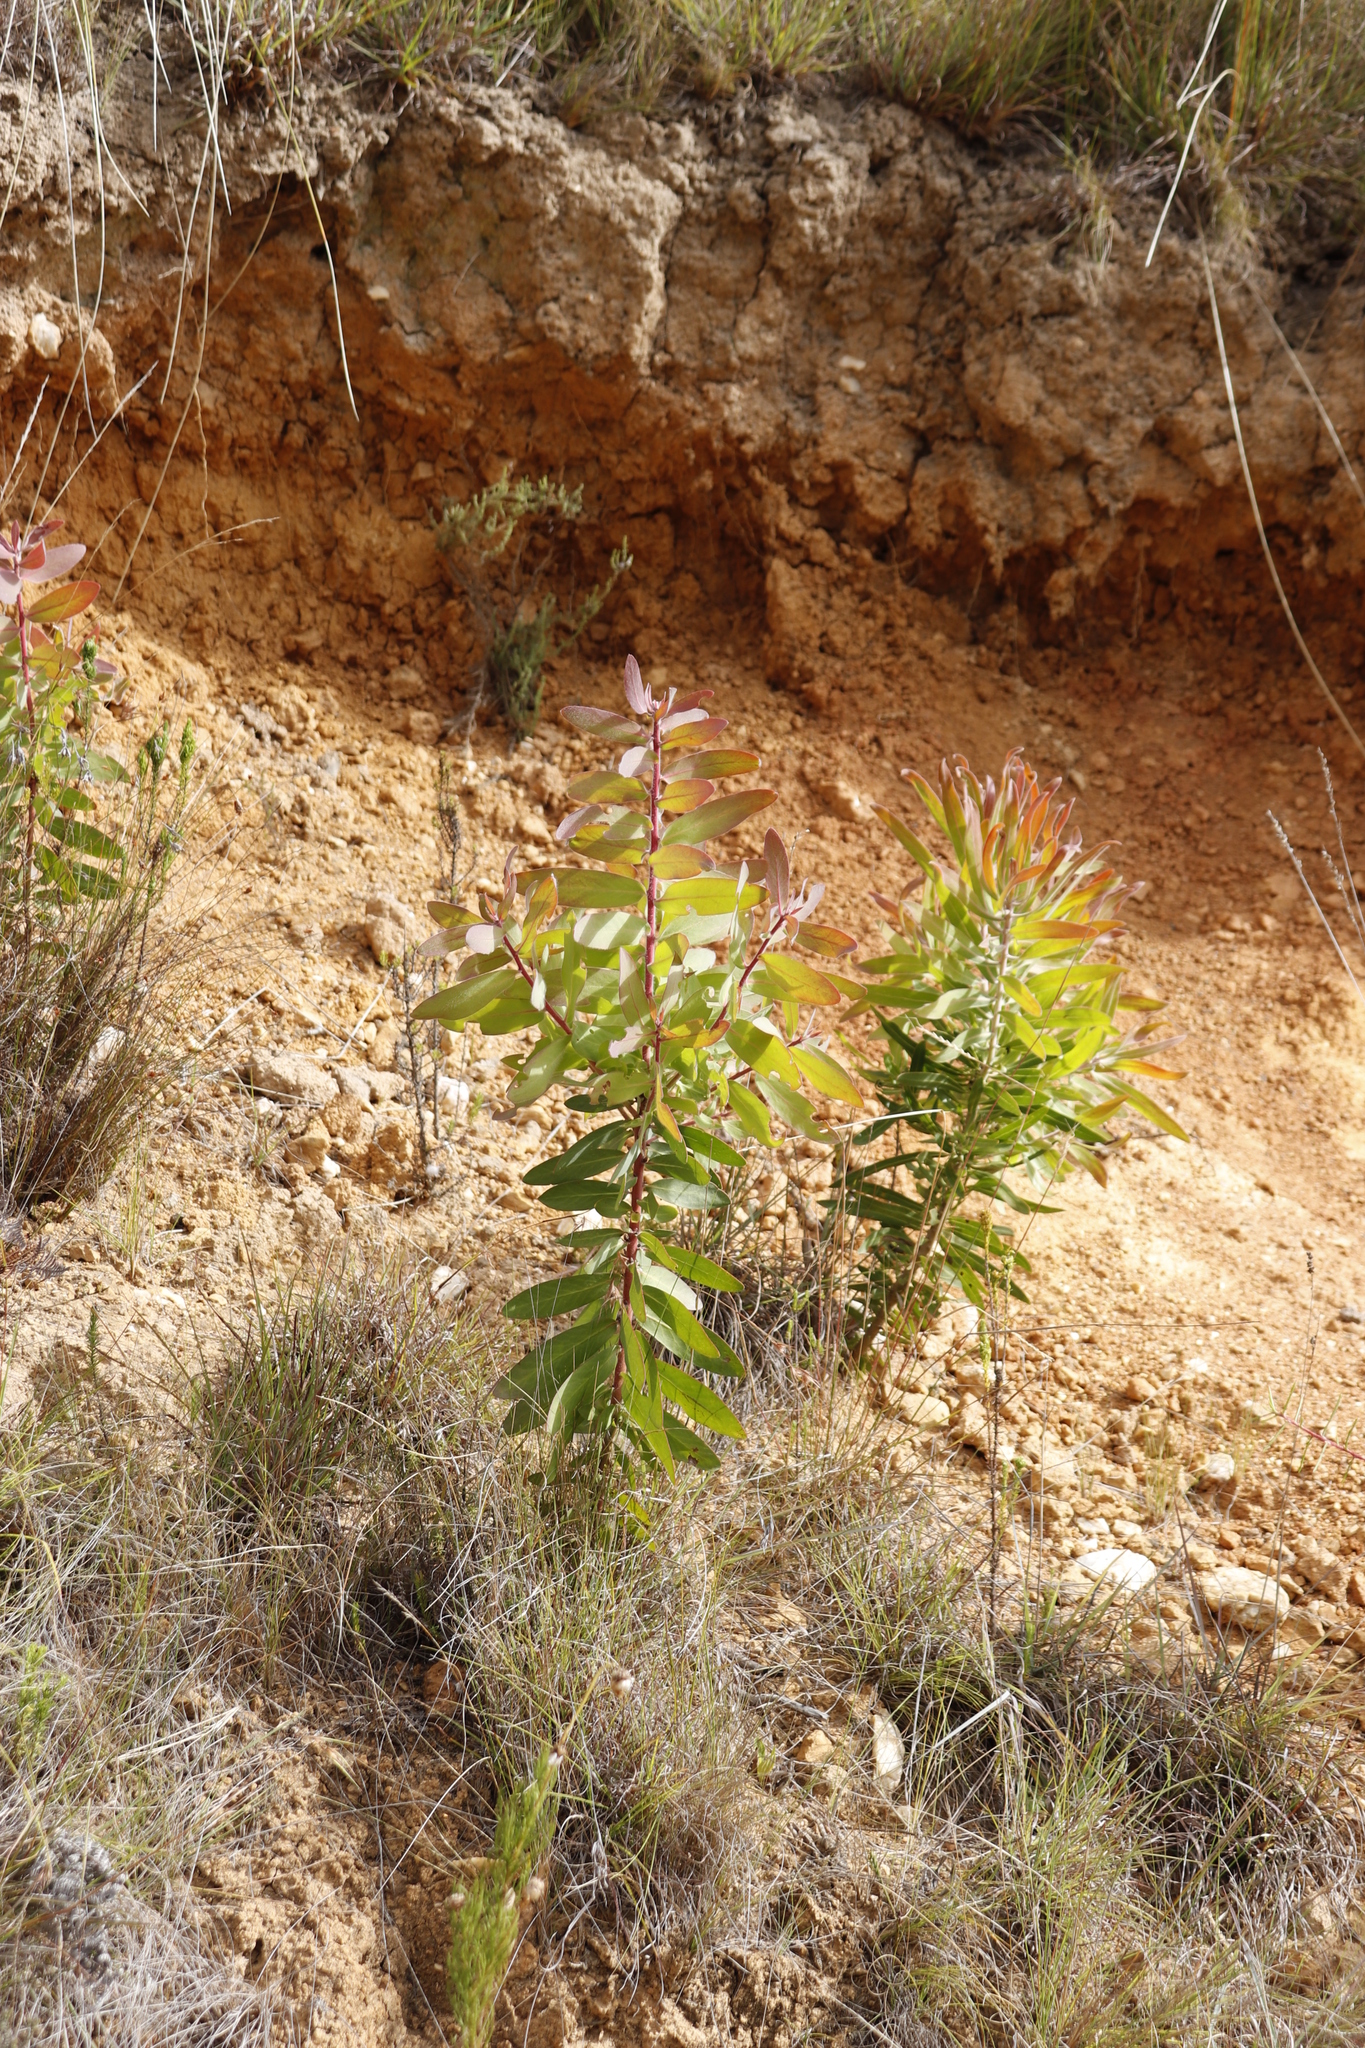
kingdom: Plantae
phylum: Tracheophyta
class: Magnoliopsida
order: Proteales
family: Proteaceae
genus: Protea
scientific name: Protea aurea
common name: Shuttlecock sugarbush
